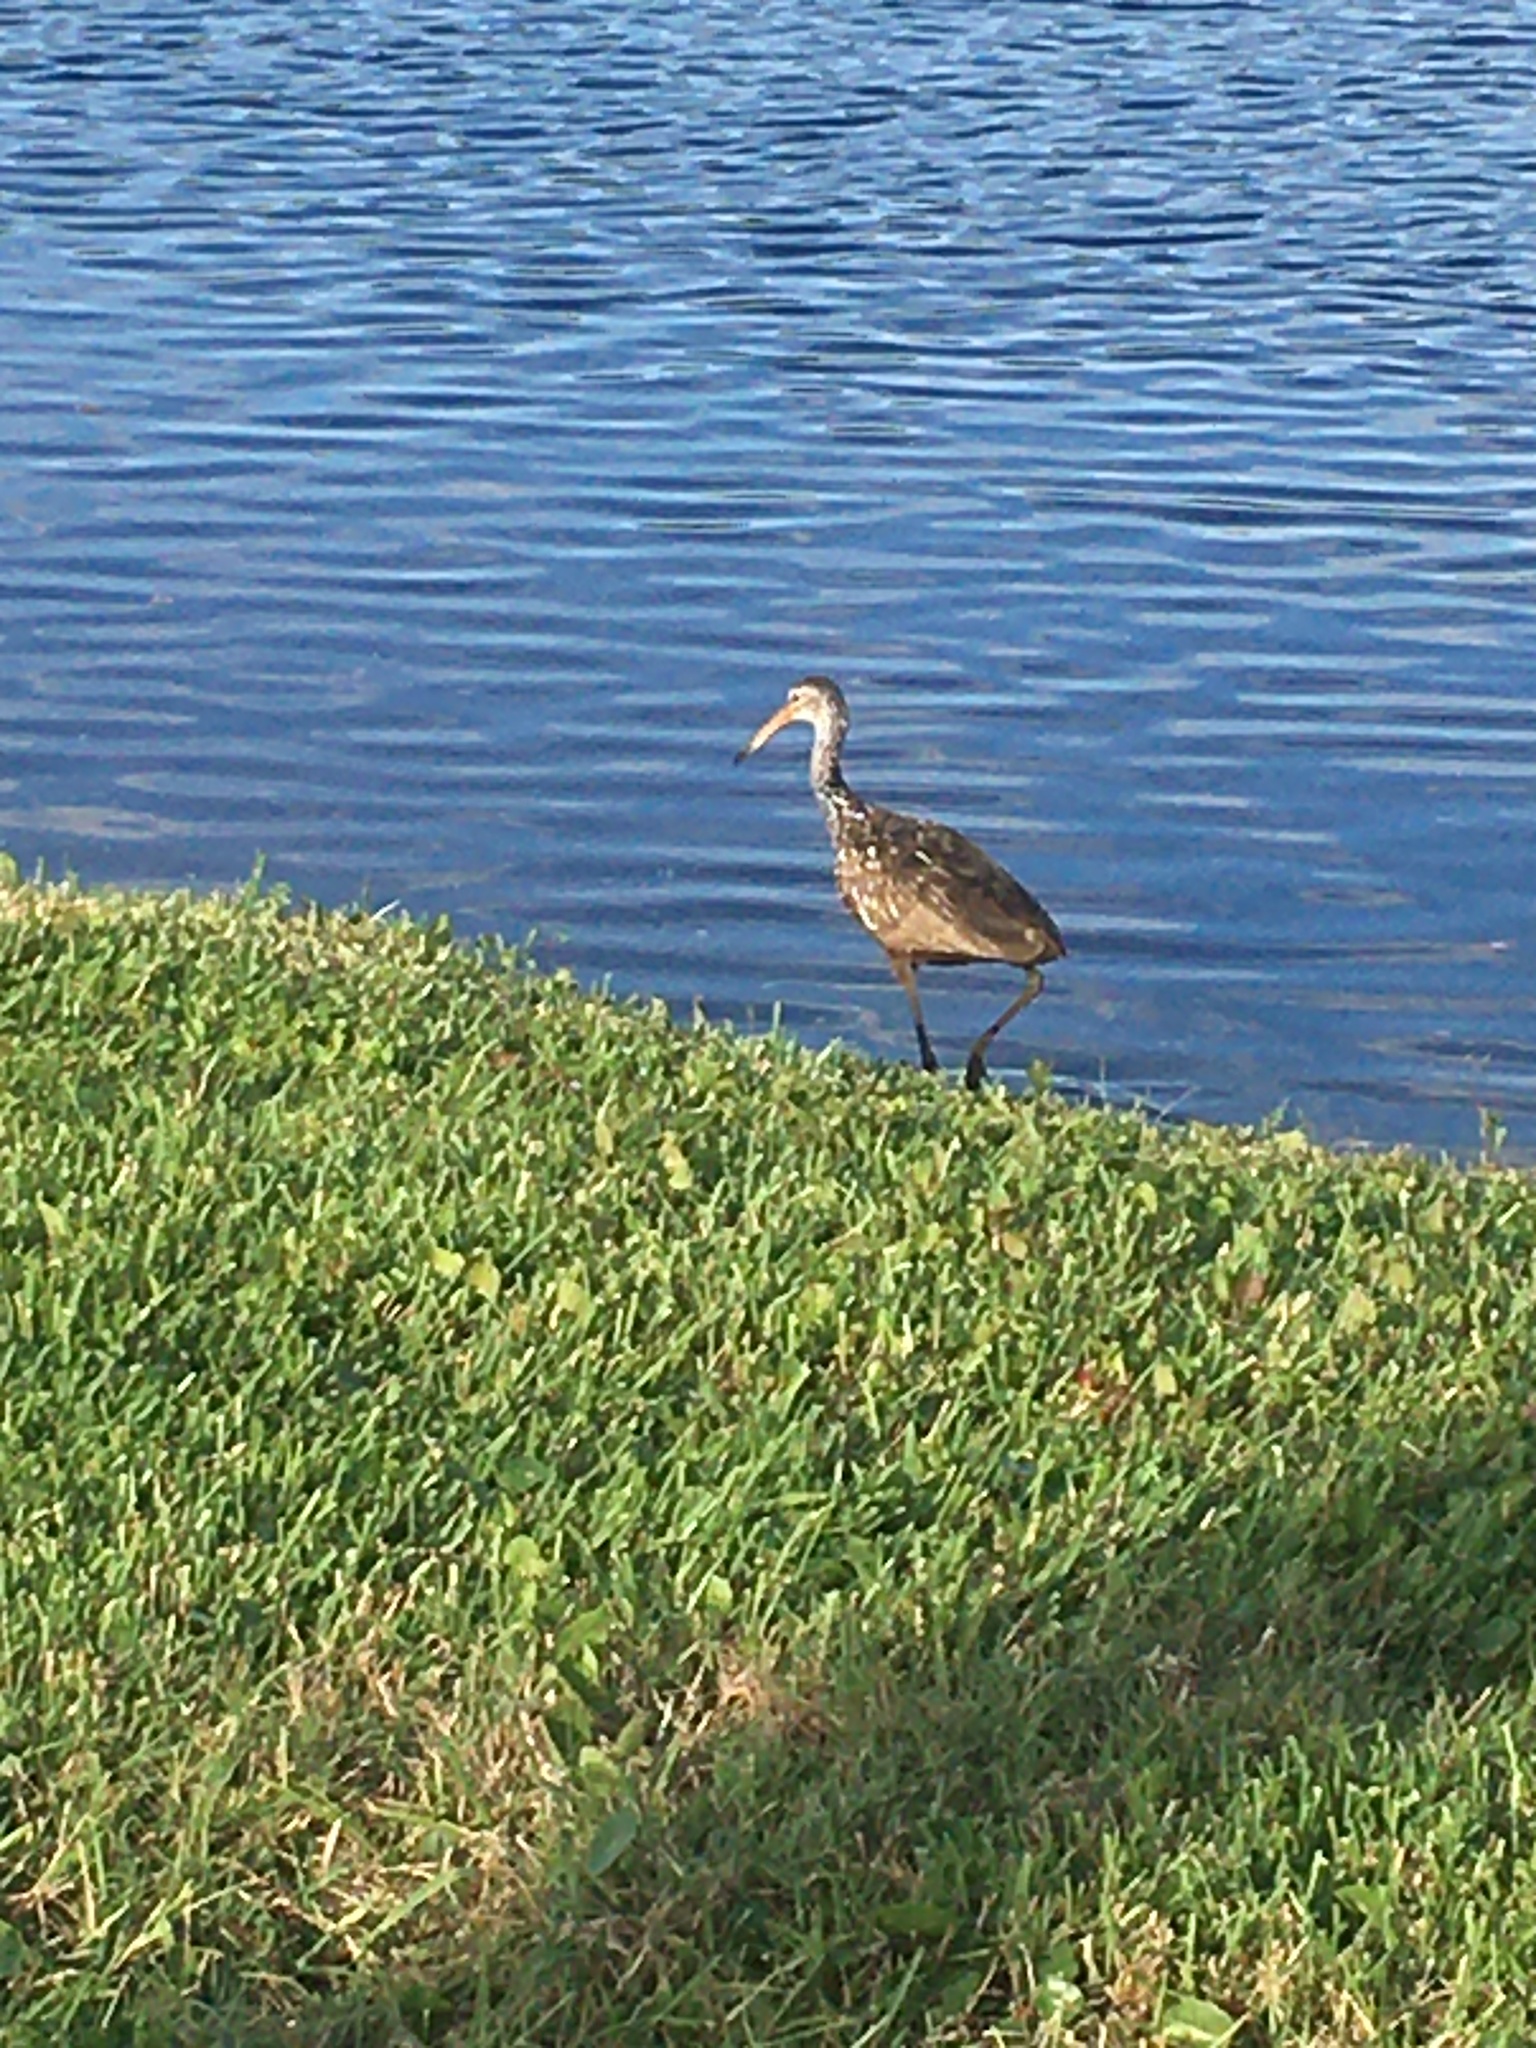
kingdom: Animalia
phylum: Chordata
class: Aves
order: Gruiformes
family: Aramidae
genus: Aramus
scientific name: Aramus guarauna
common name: Limpkin
